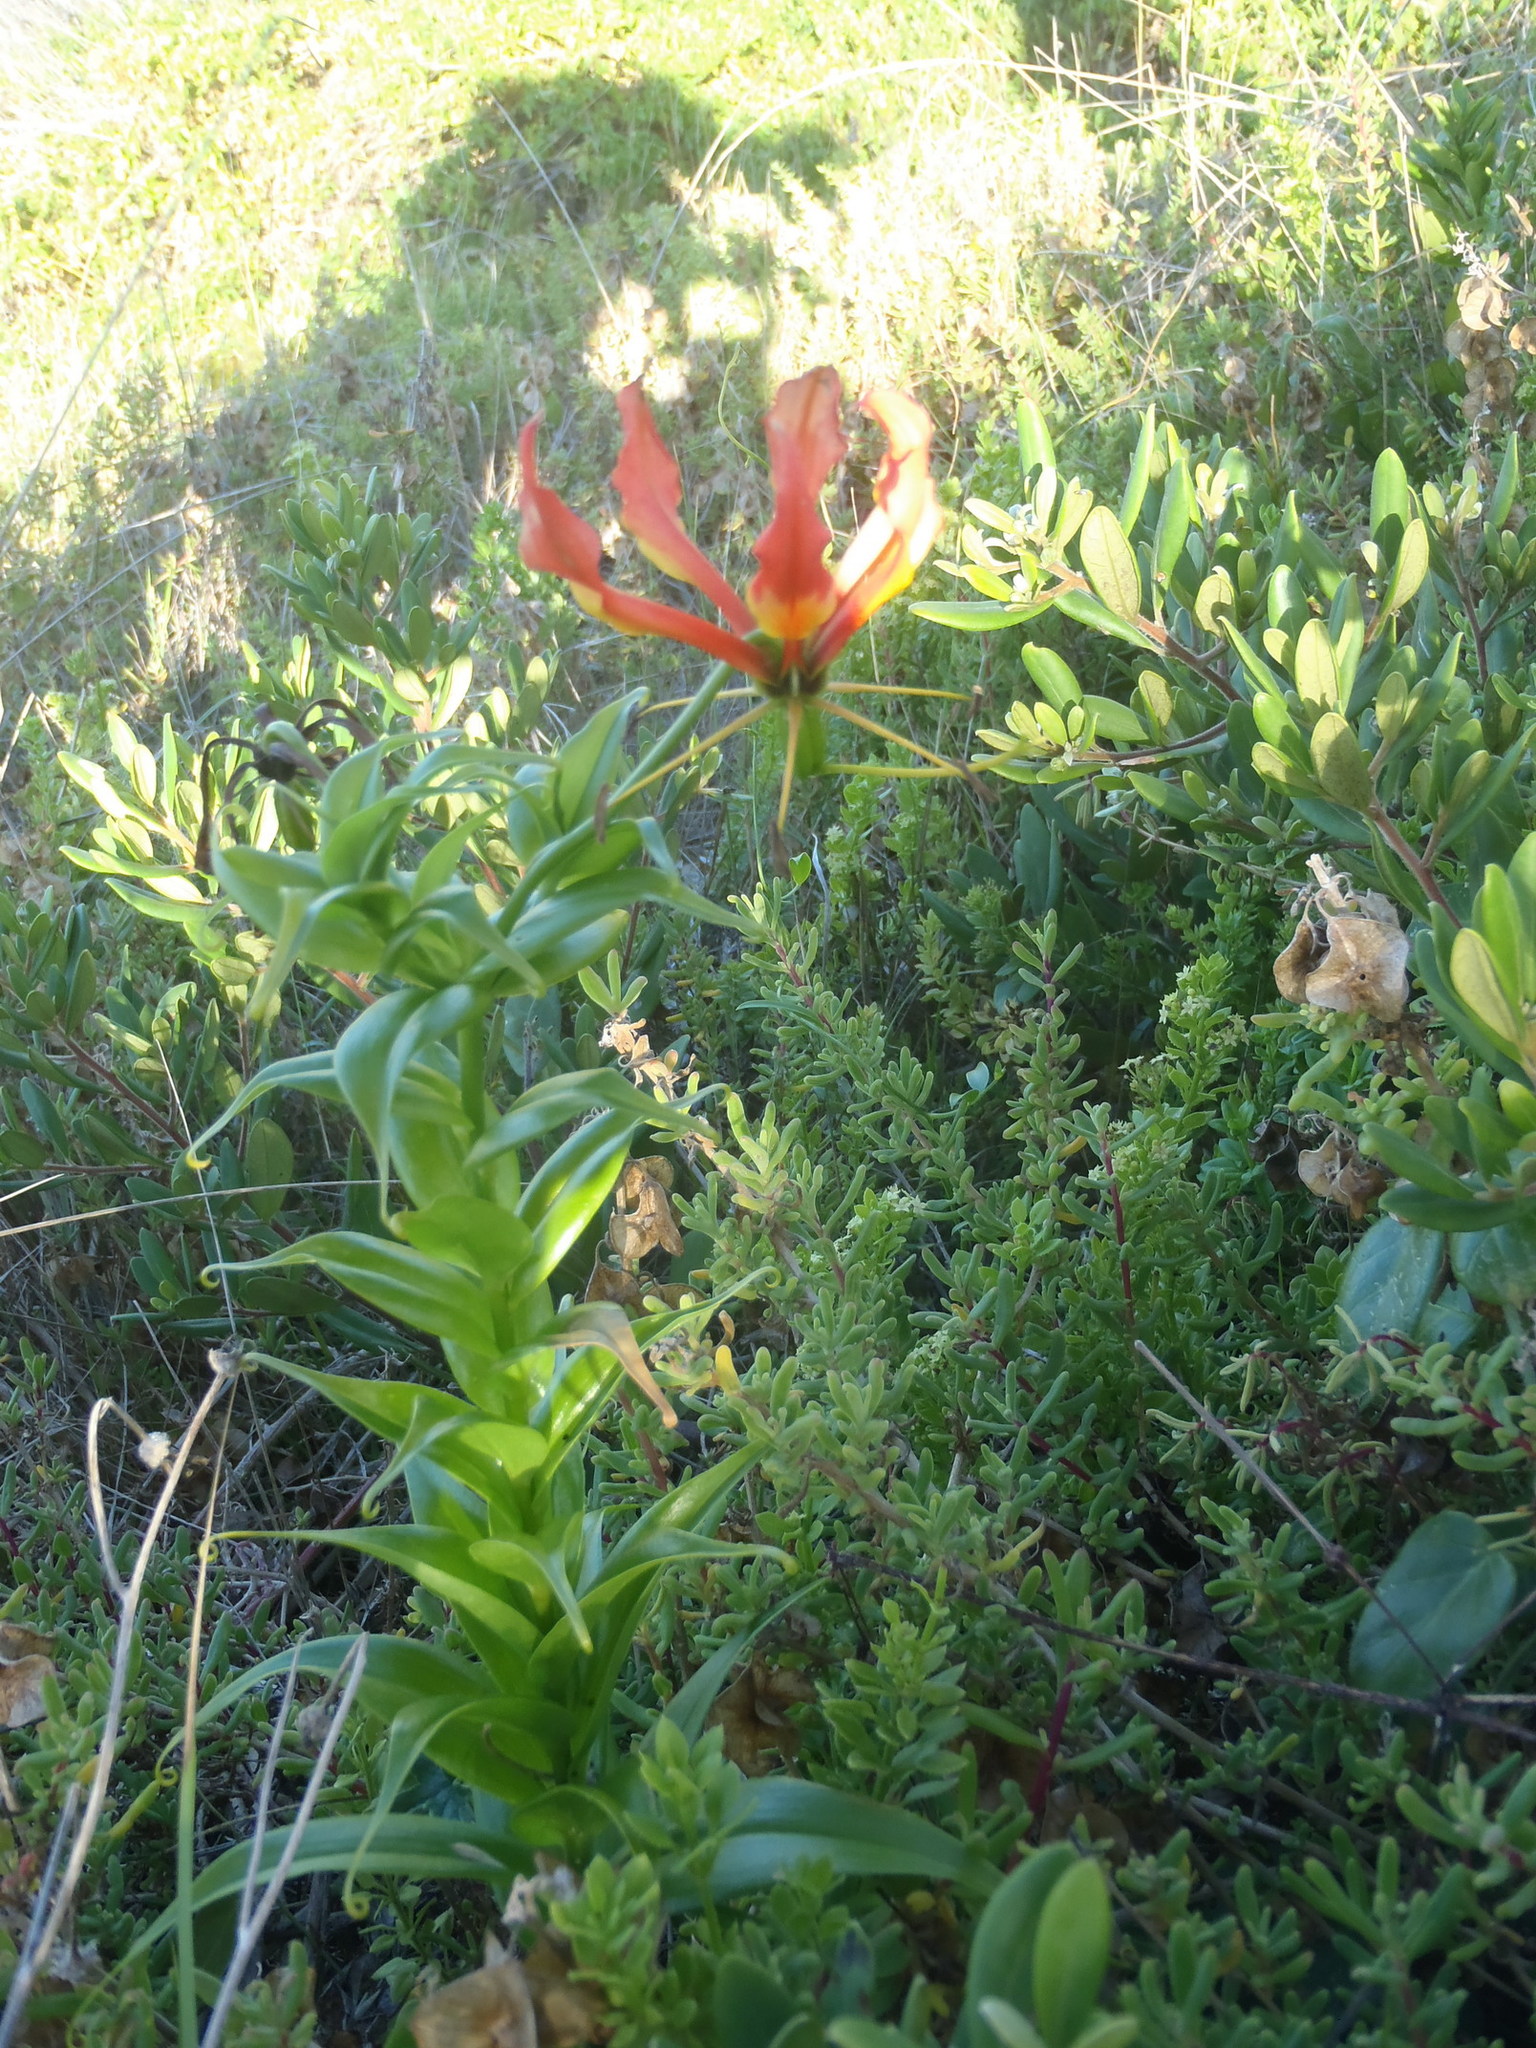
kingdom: Plantae
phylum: Tracheophyta
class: Liliopsida
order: Liliales
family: Colchicaceae
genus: Gloriosa
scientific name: Gloriosa superba
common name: Flame lily
